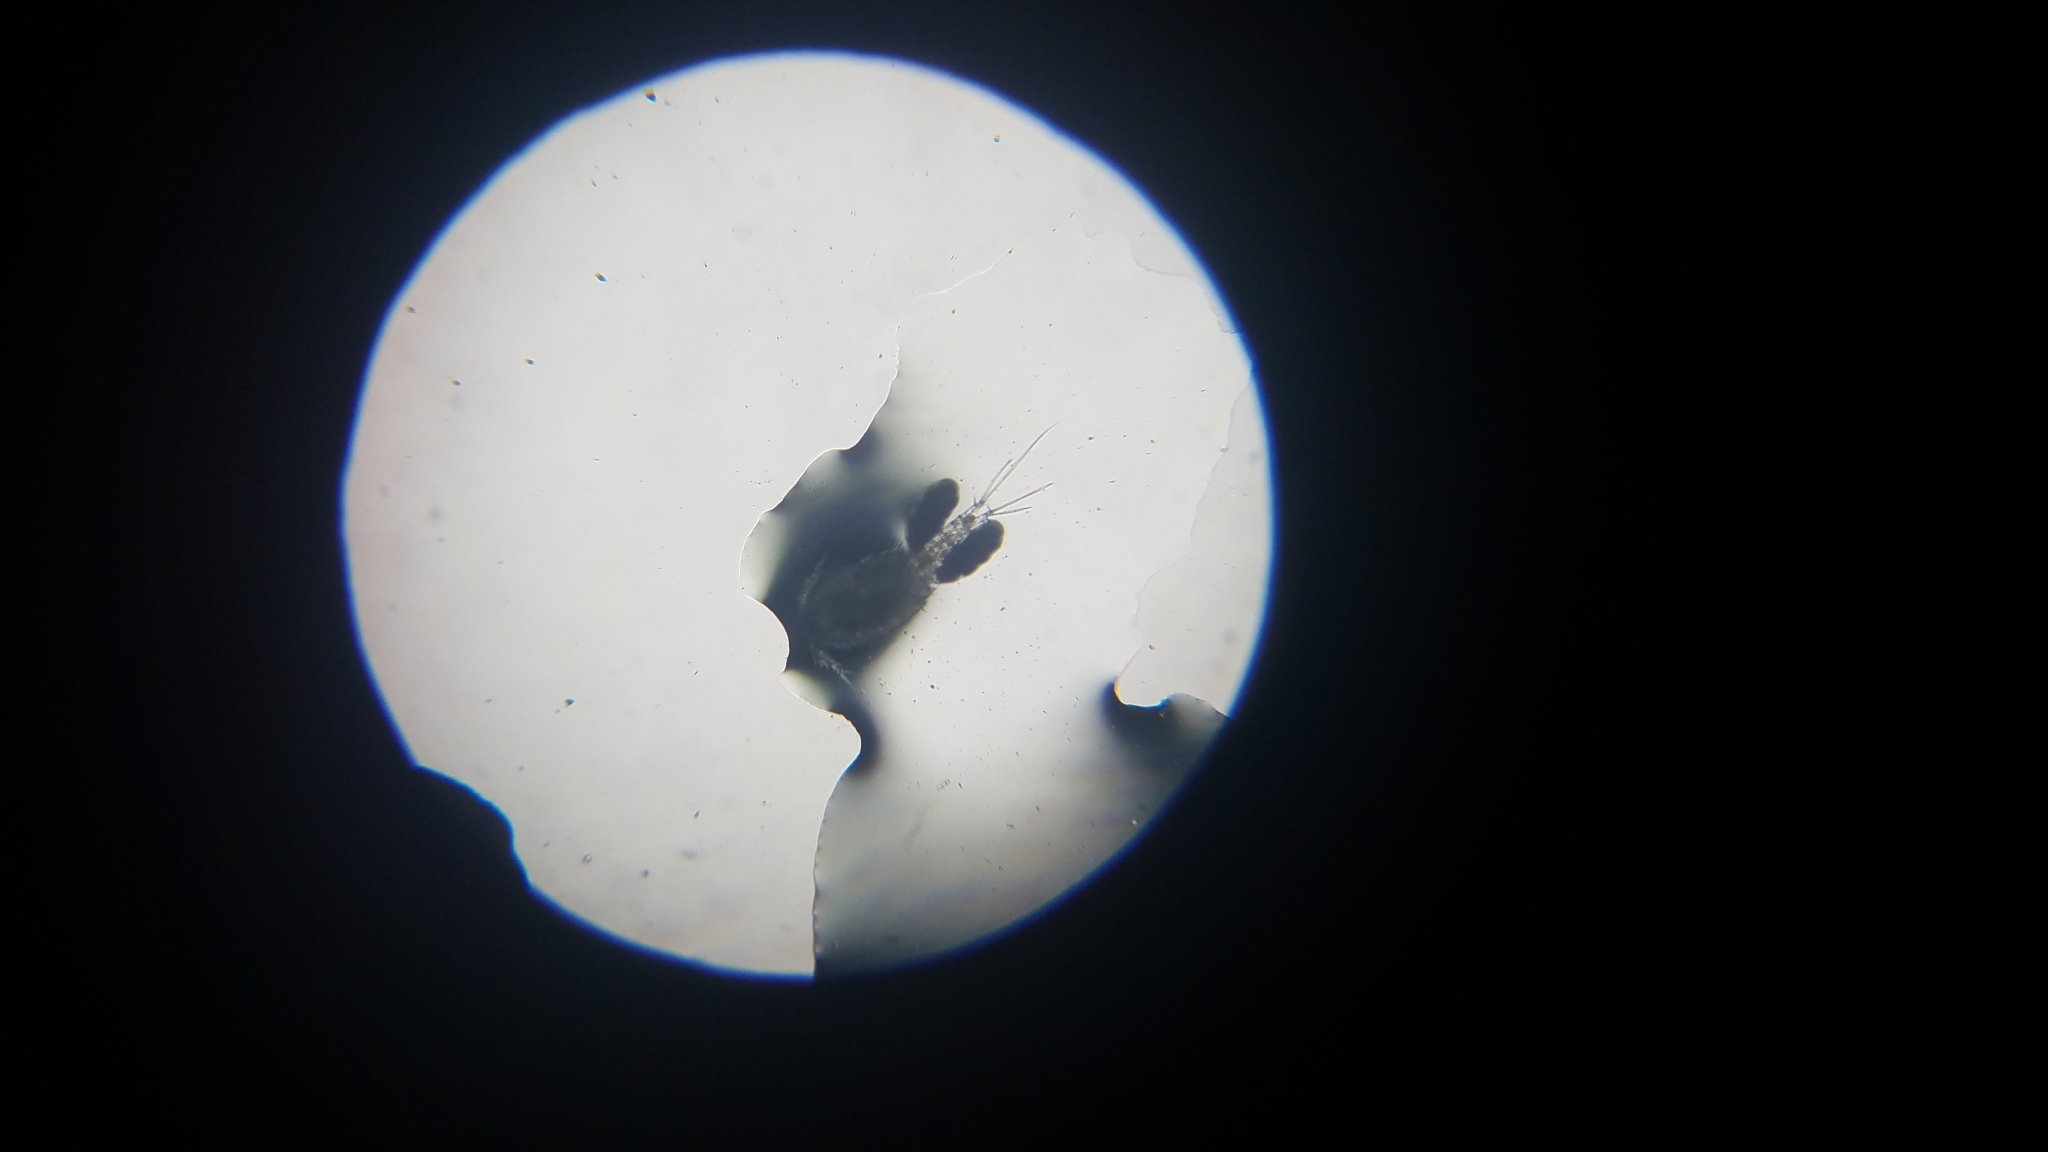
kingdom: Animalia
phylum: Arthropoda
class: Copepoda
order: Cyclopoida
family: Cyclopidae
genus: Paracyclops
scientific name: Paracyclops
